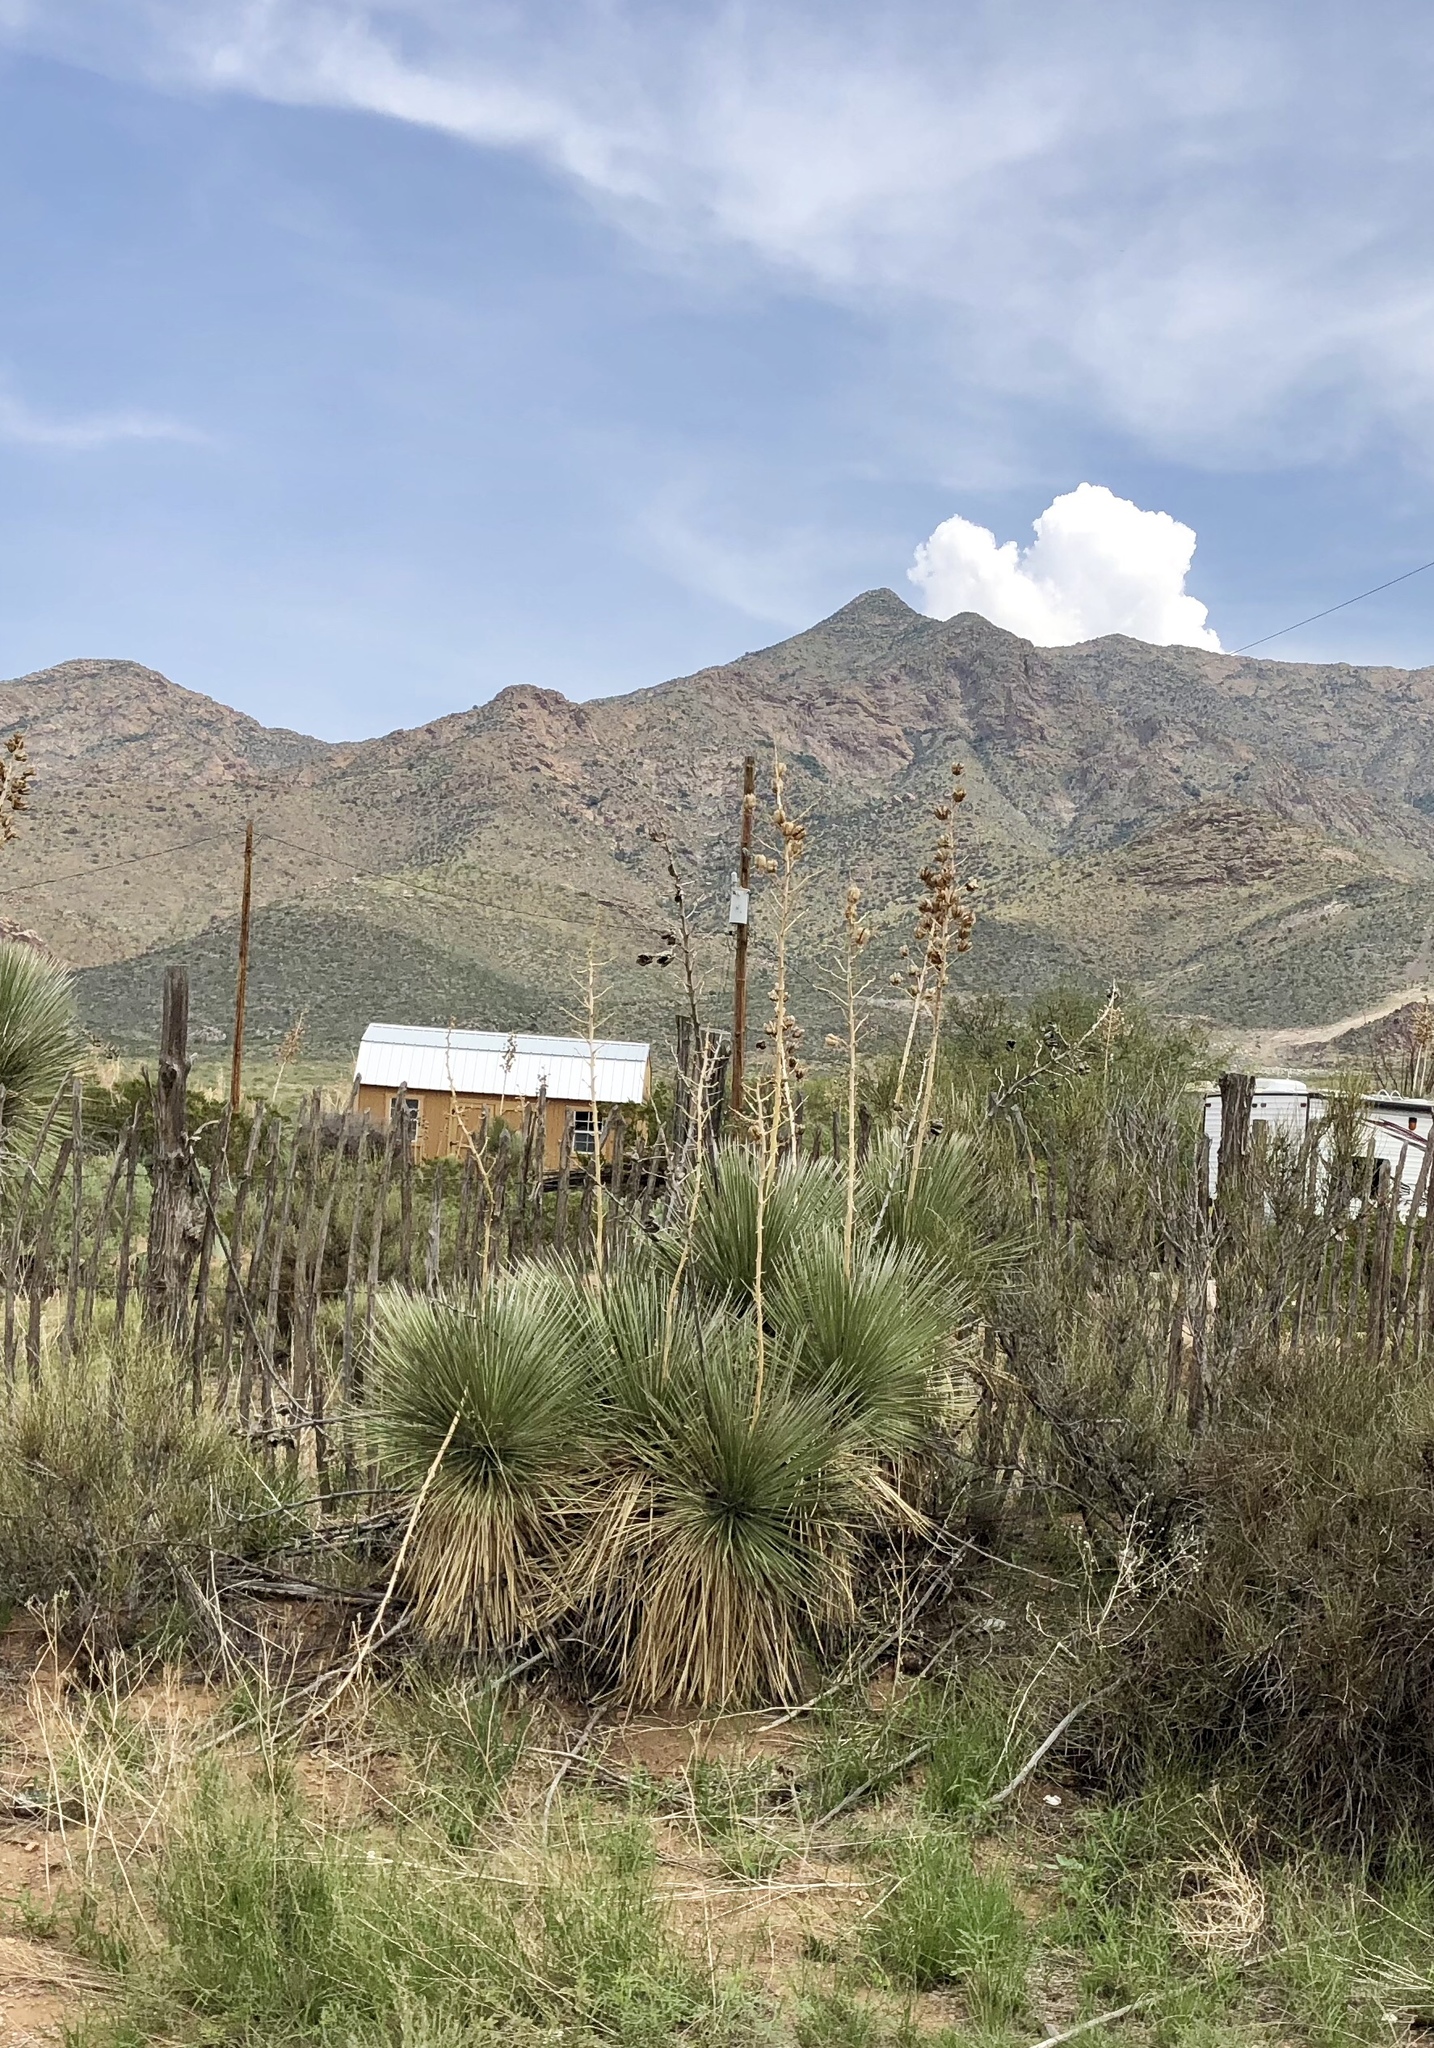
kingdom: Plantae
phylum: Tracheophyta
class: Liliopsida
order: Asparagales
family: Asparagaceae
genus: Yucca
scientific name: Yucca elata
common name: Palmella
